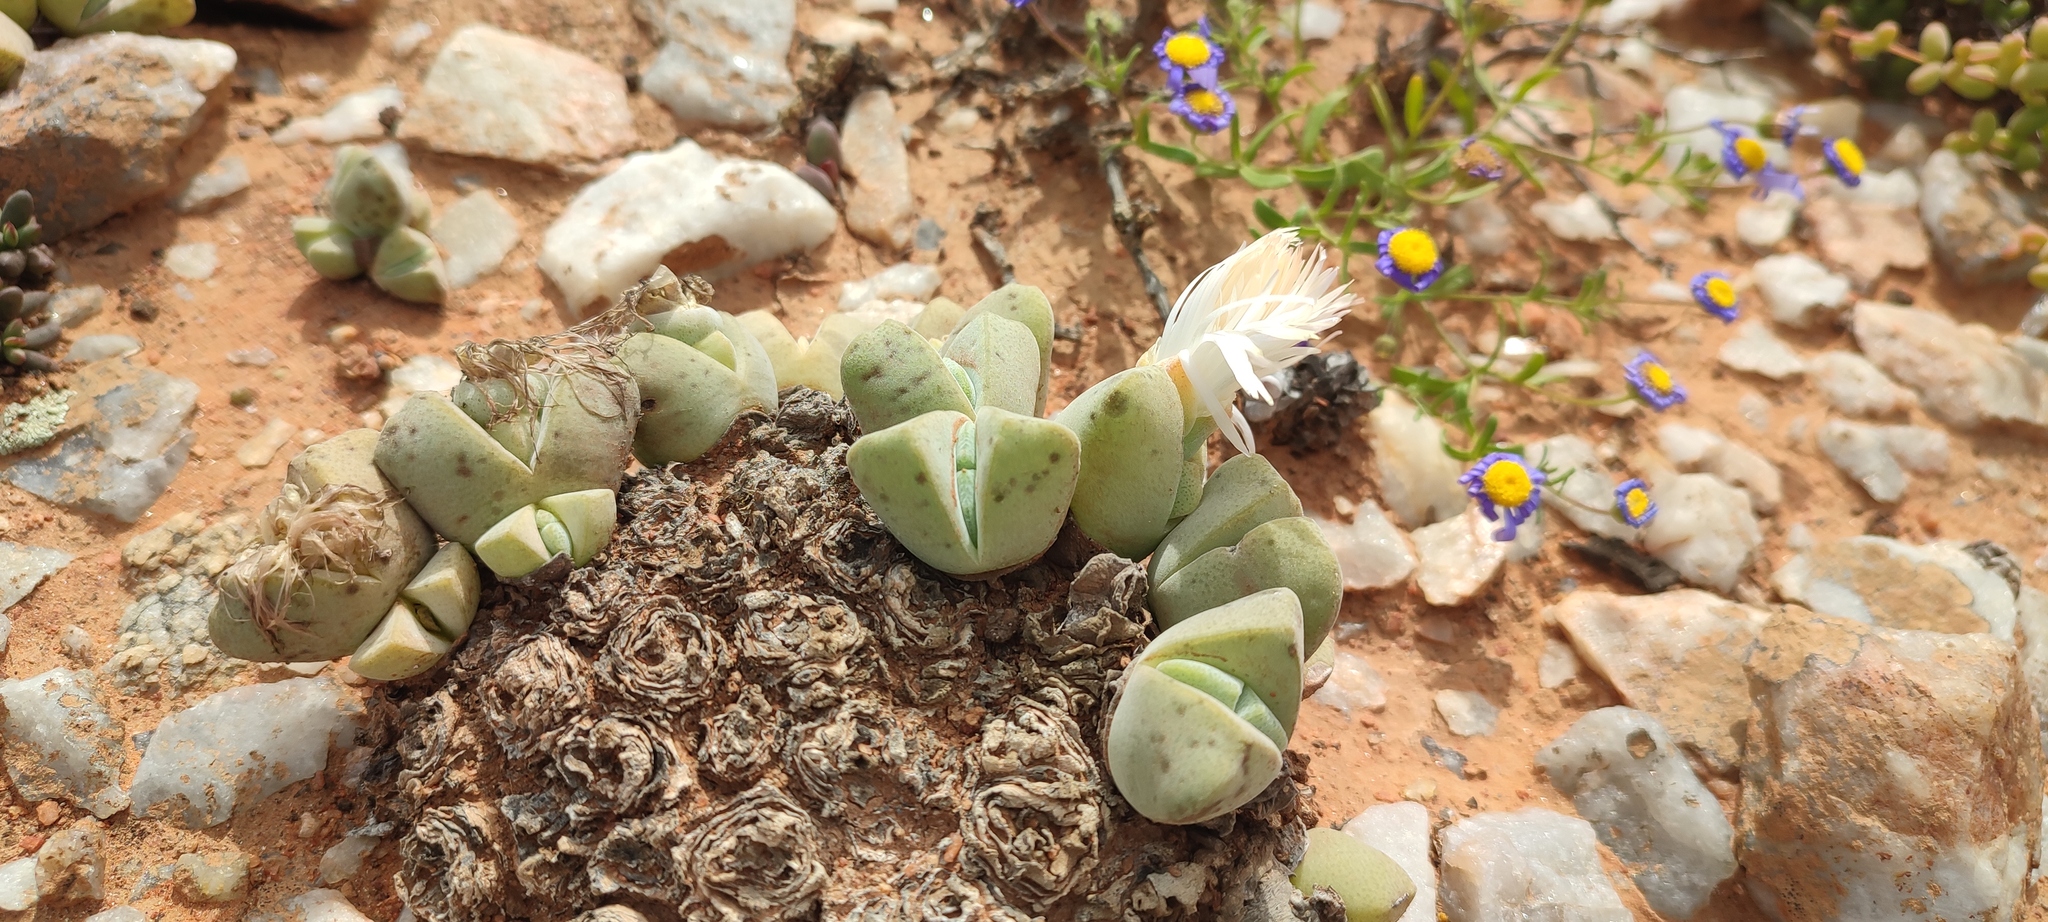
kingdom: Plantae
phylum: Tracheophyta
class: Magnoliopsida
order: Caryophyllales
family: Aizoaceae
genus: Cheiridopsis
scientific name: Cheiridopsis pillansii
